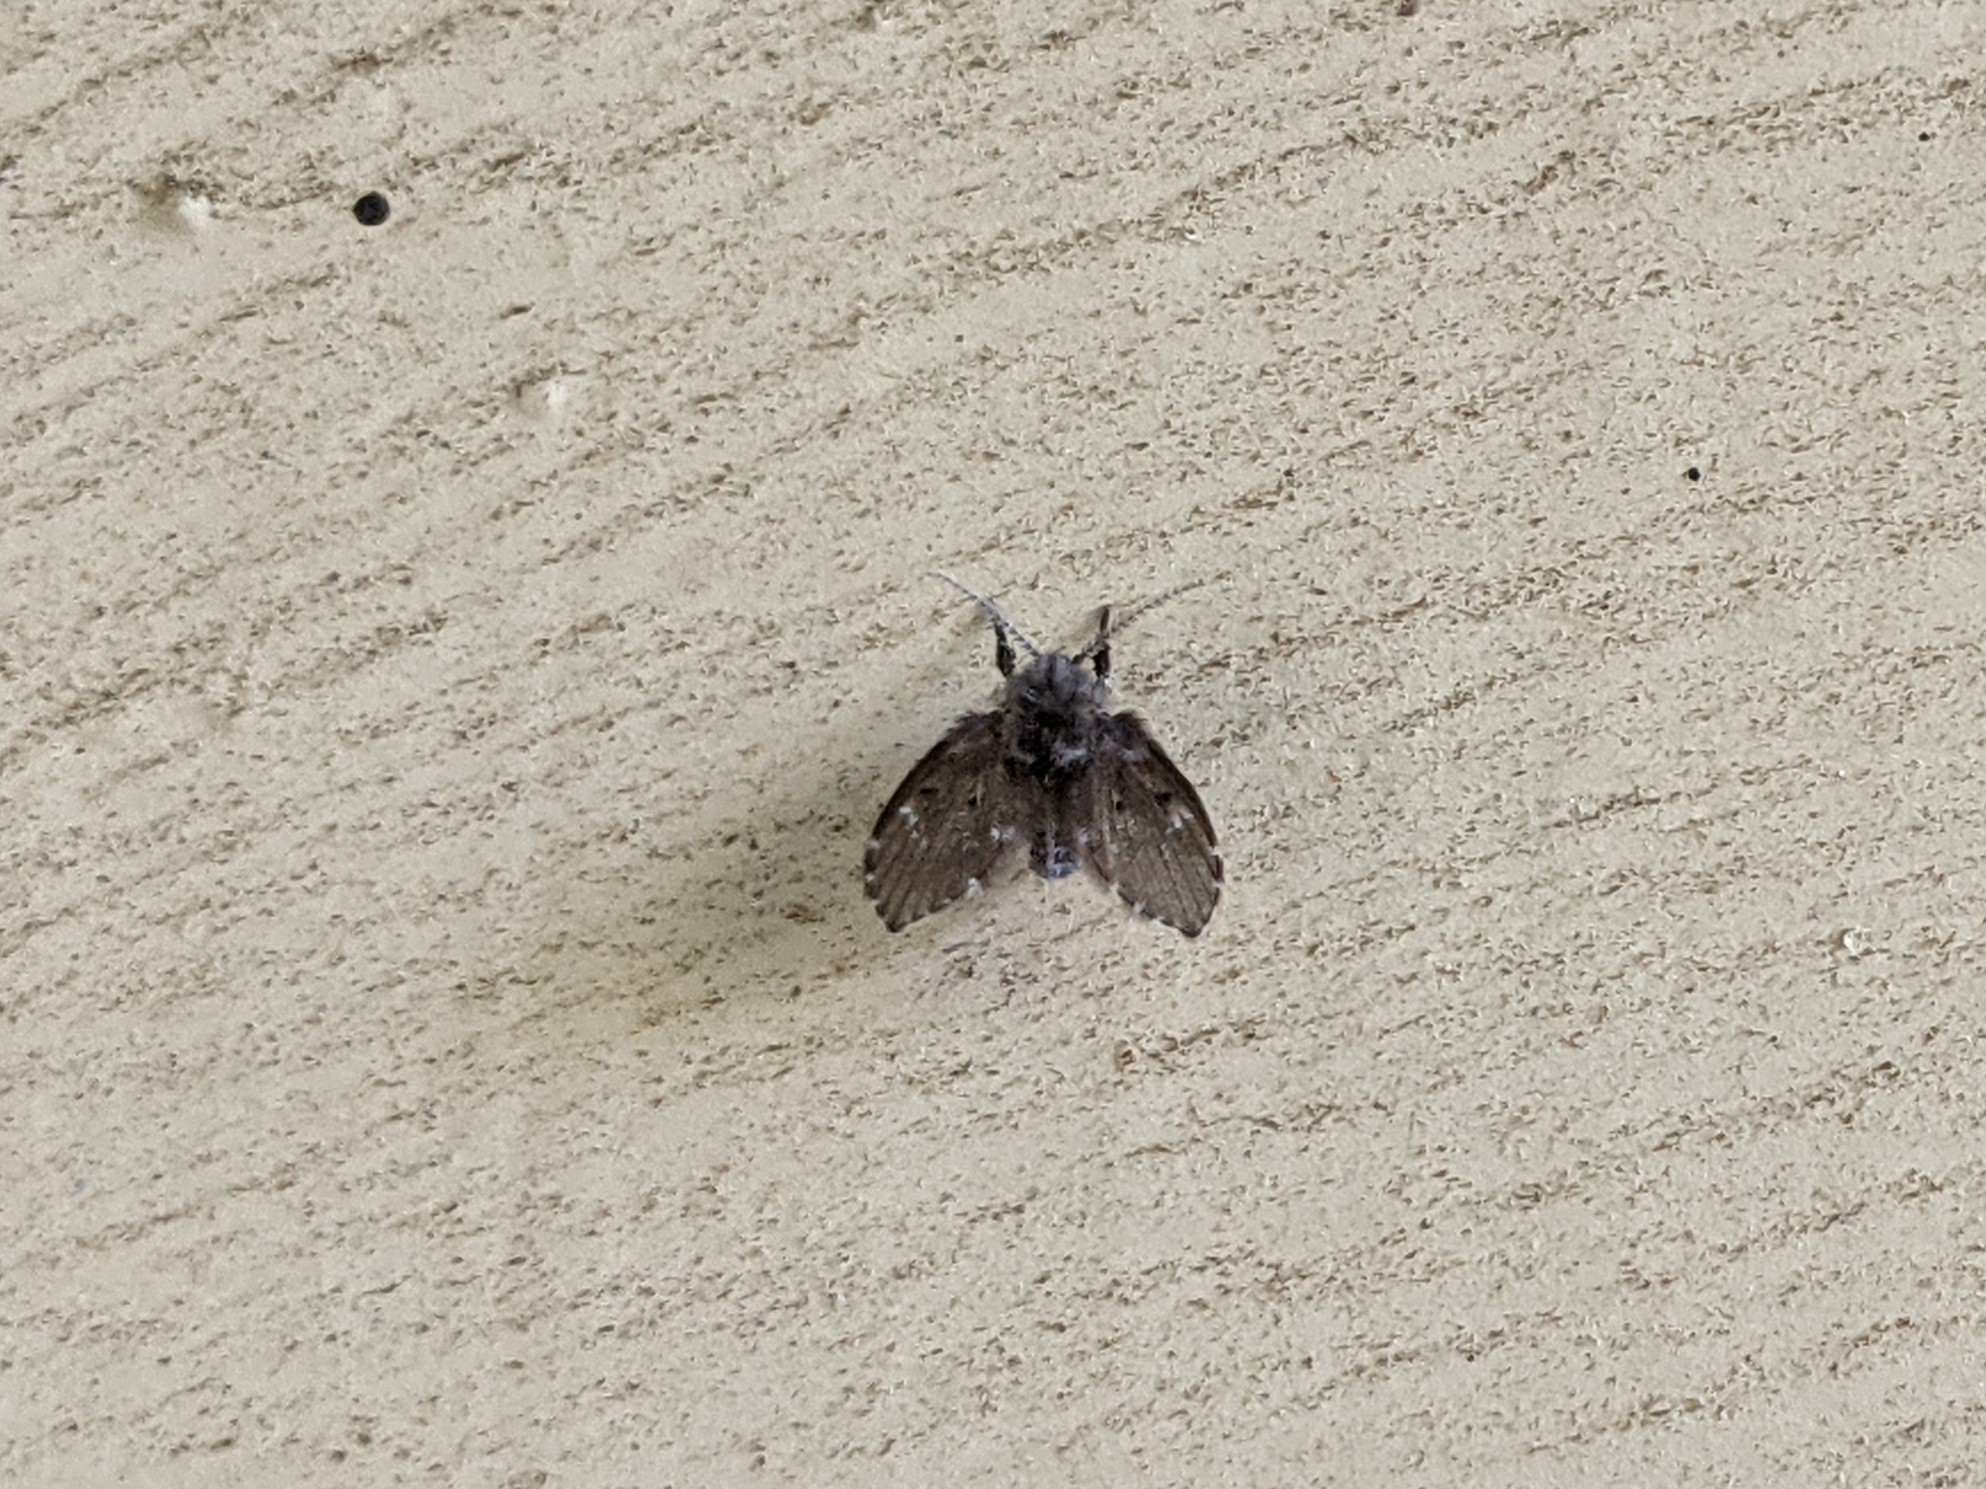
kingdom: Animalia
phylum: Arthropoda
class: Insecta
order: Diptera
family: Psychodidae
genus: Clogmia
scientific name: Clogmia albipunctatus
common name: White-spotted moth fly
